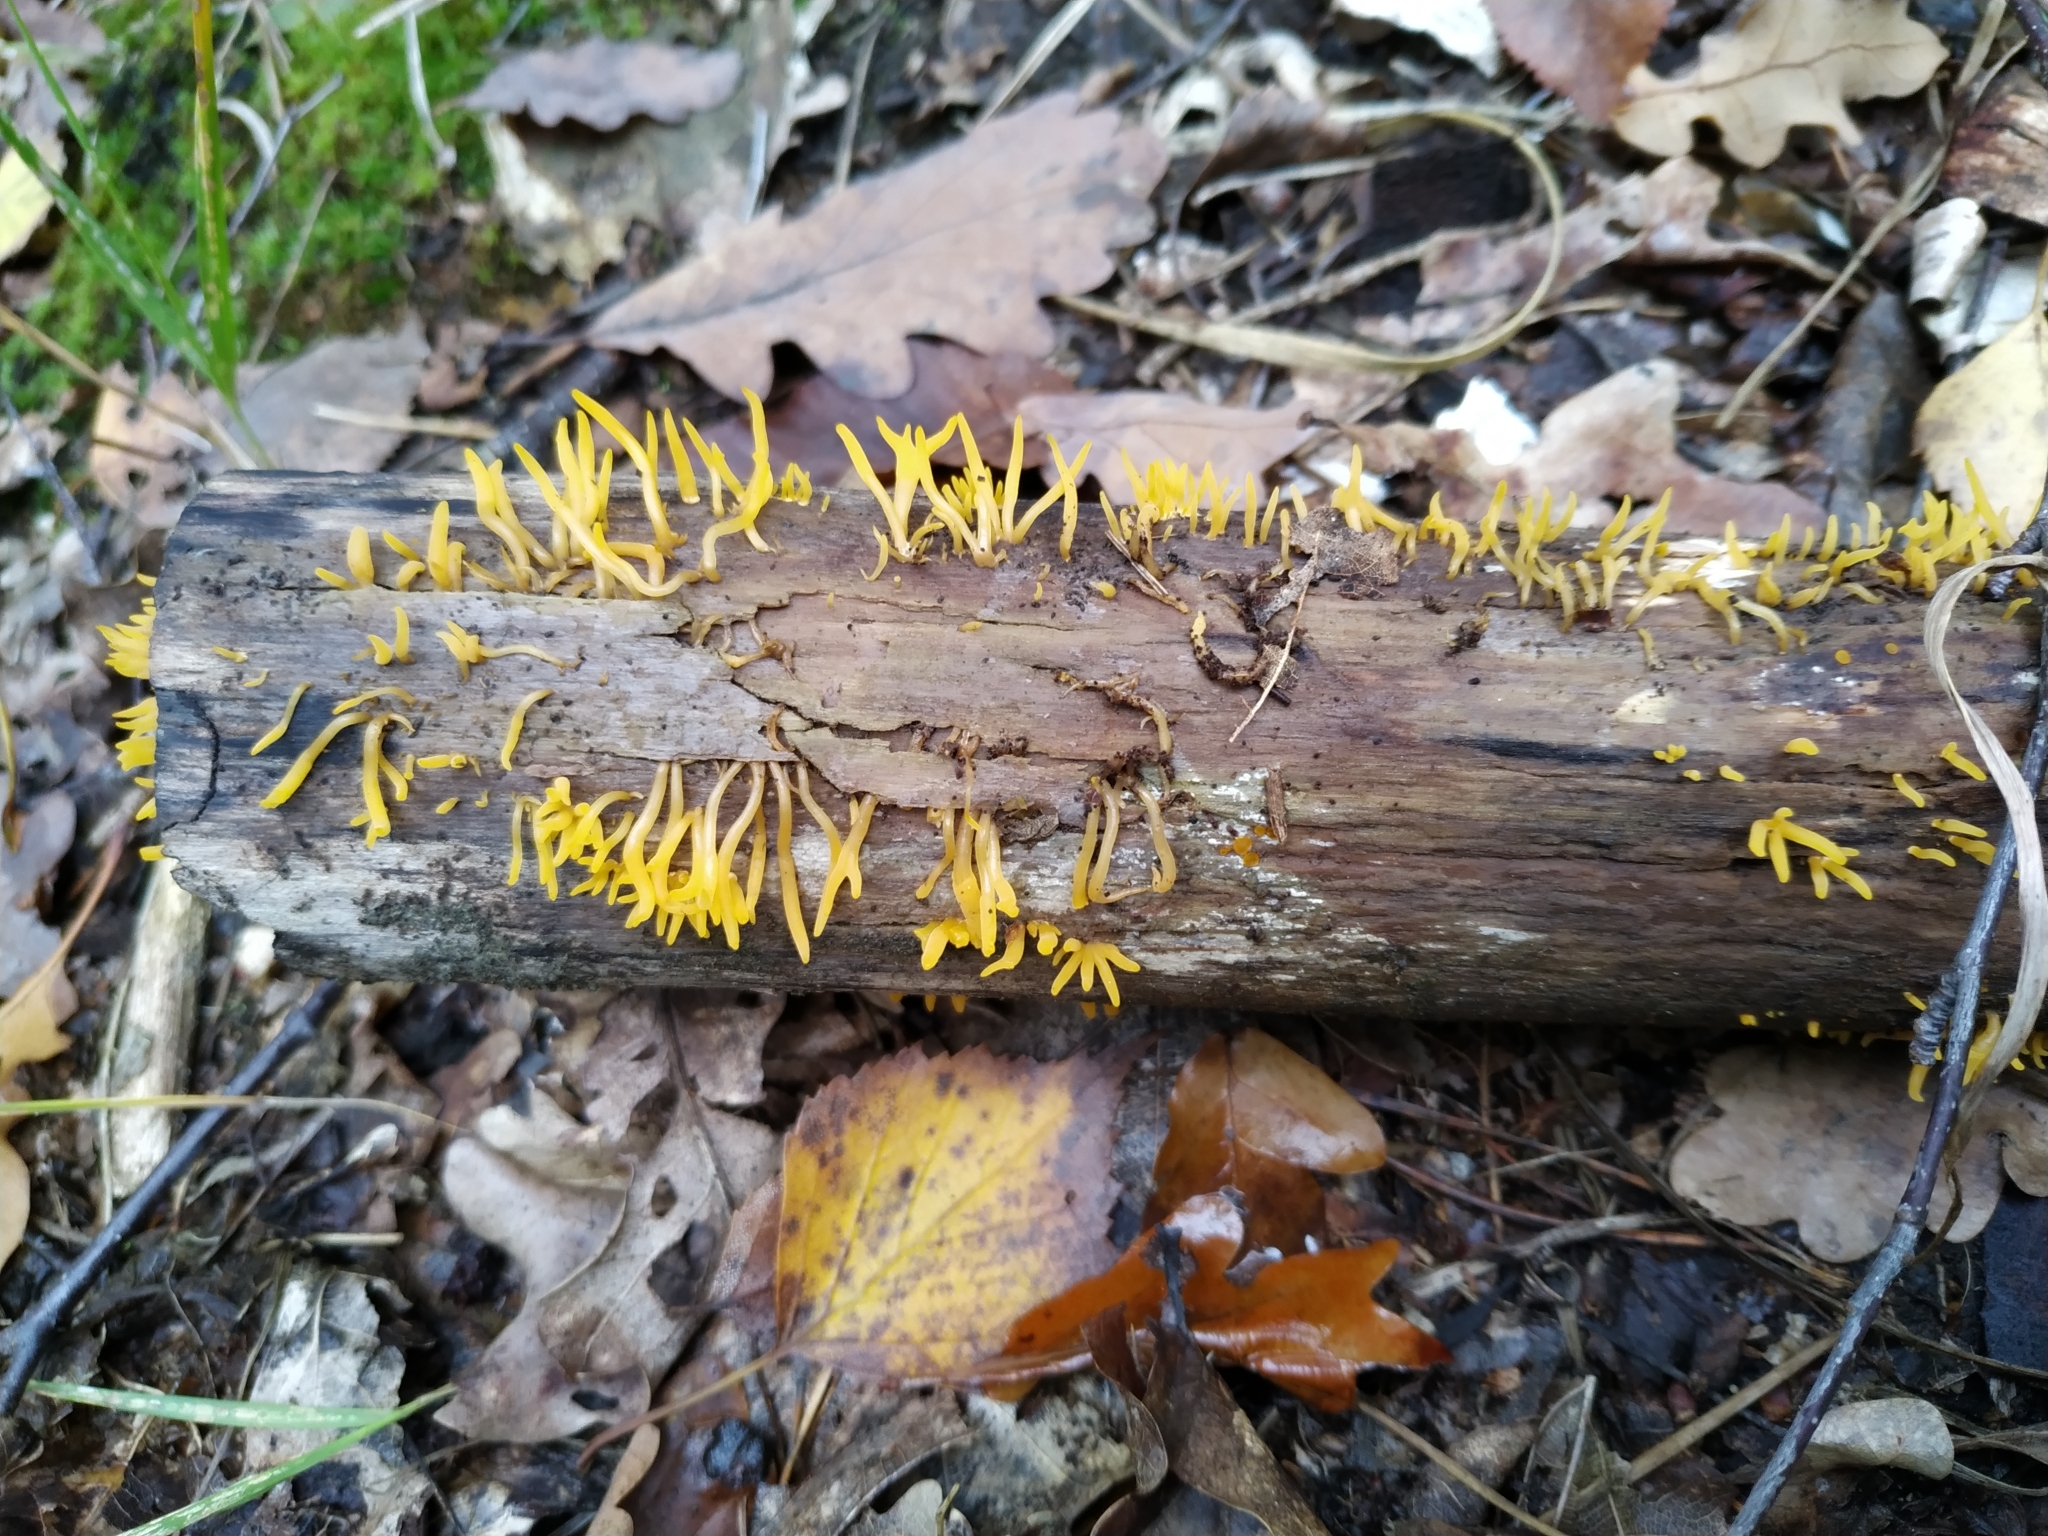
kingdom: Fungi
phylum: Basidiomycota
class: Dacrymycetes
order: Dacrymycetales
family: Dacrymycetaceae
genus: Calocera
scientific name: Calocera cornea
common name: Small stagshorn
